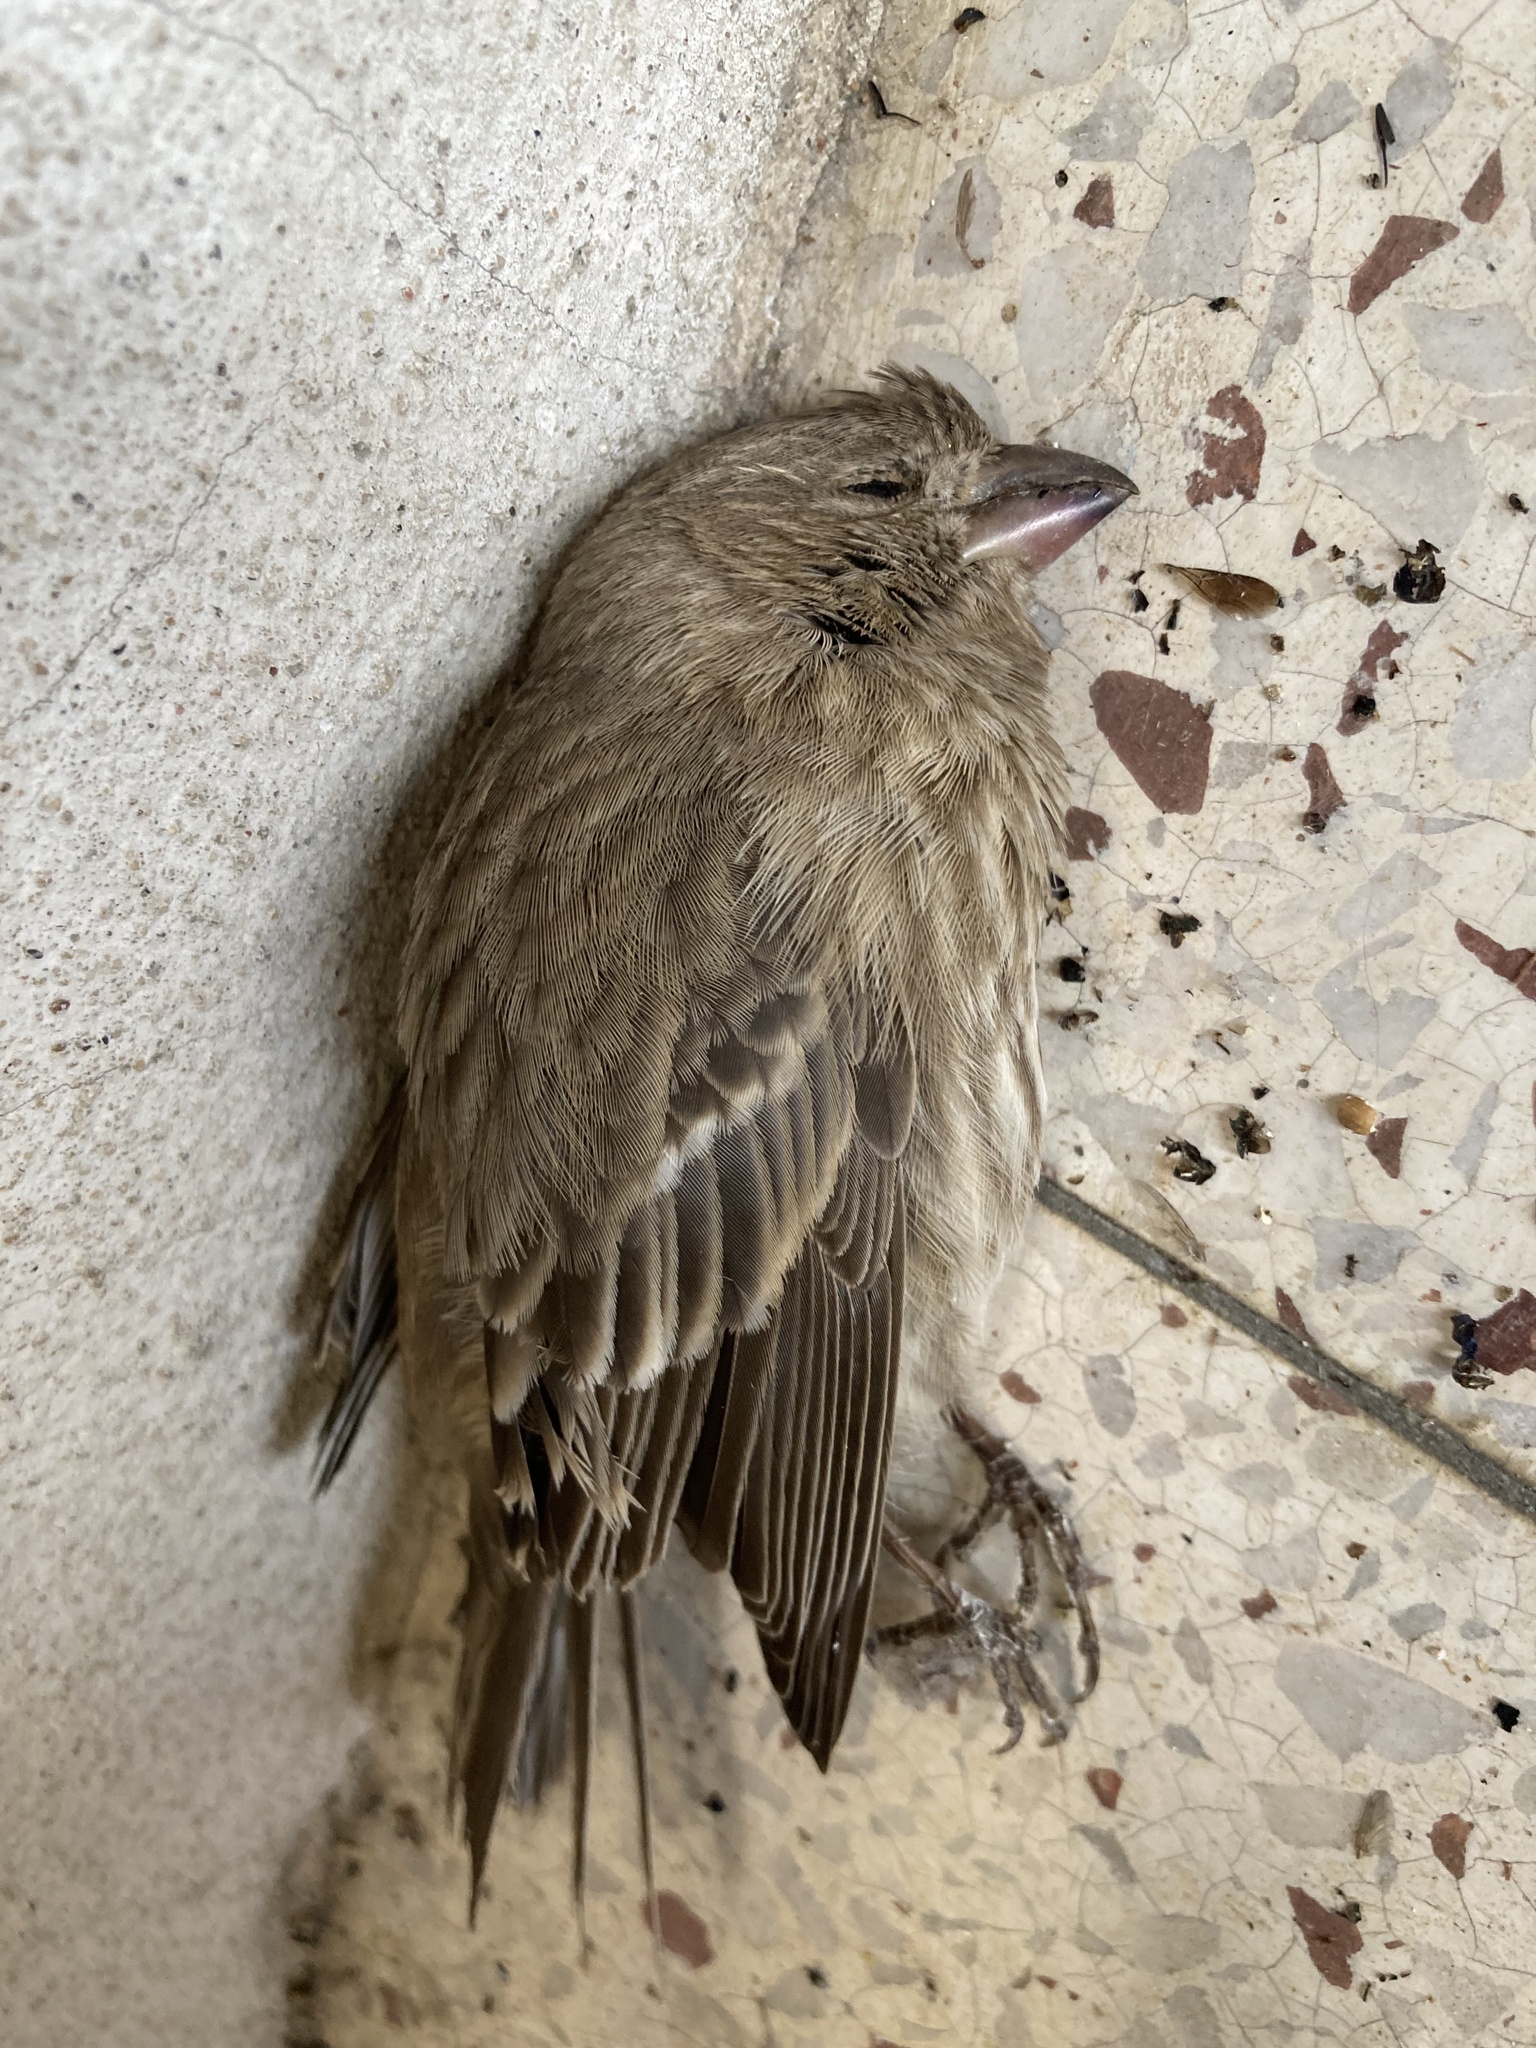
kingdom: Animalia
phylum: Chordata
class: Aves
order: Passeriformes
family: Fringillidae
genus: Haemorhous
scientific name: Haemorhous mexicanus
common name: House finch
